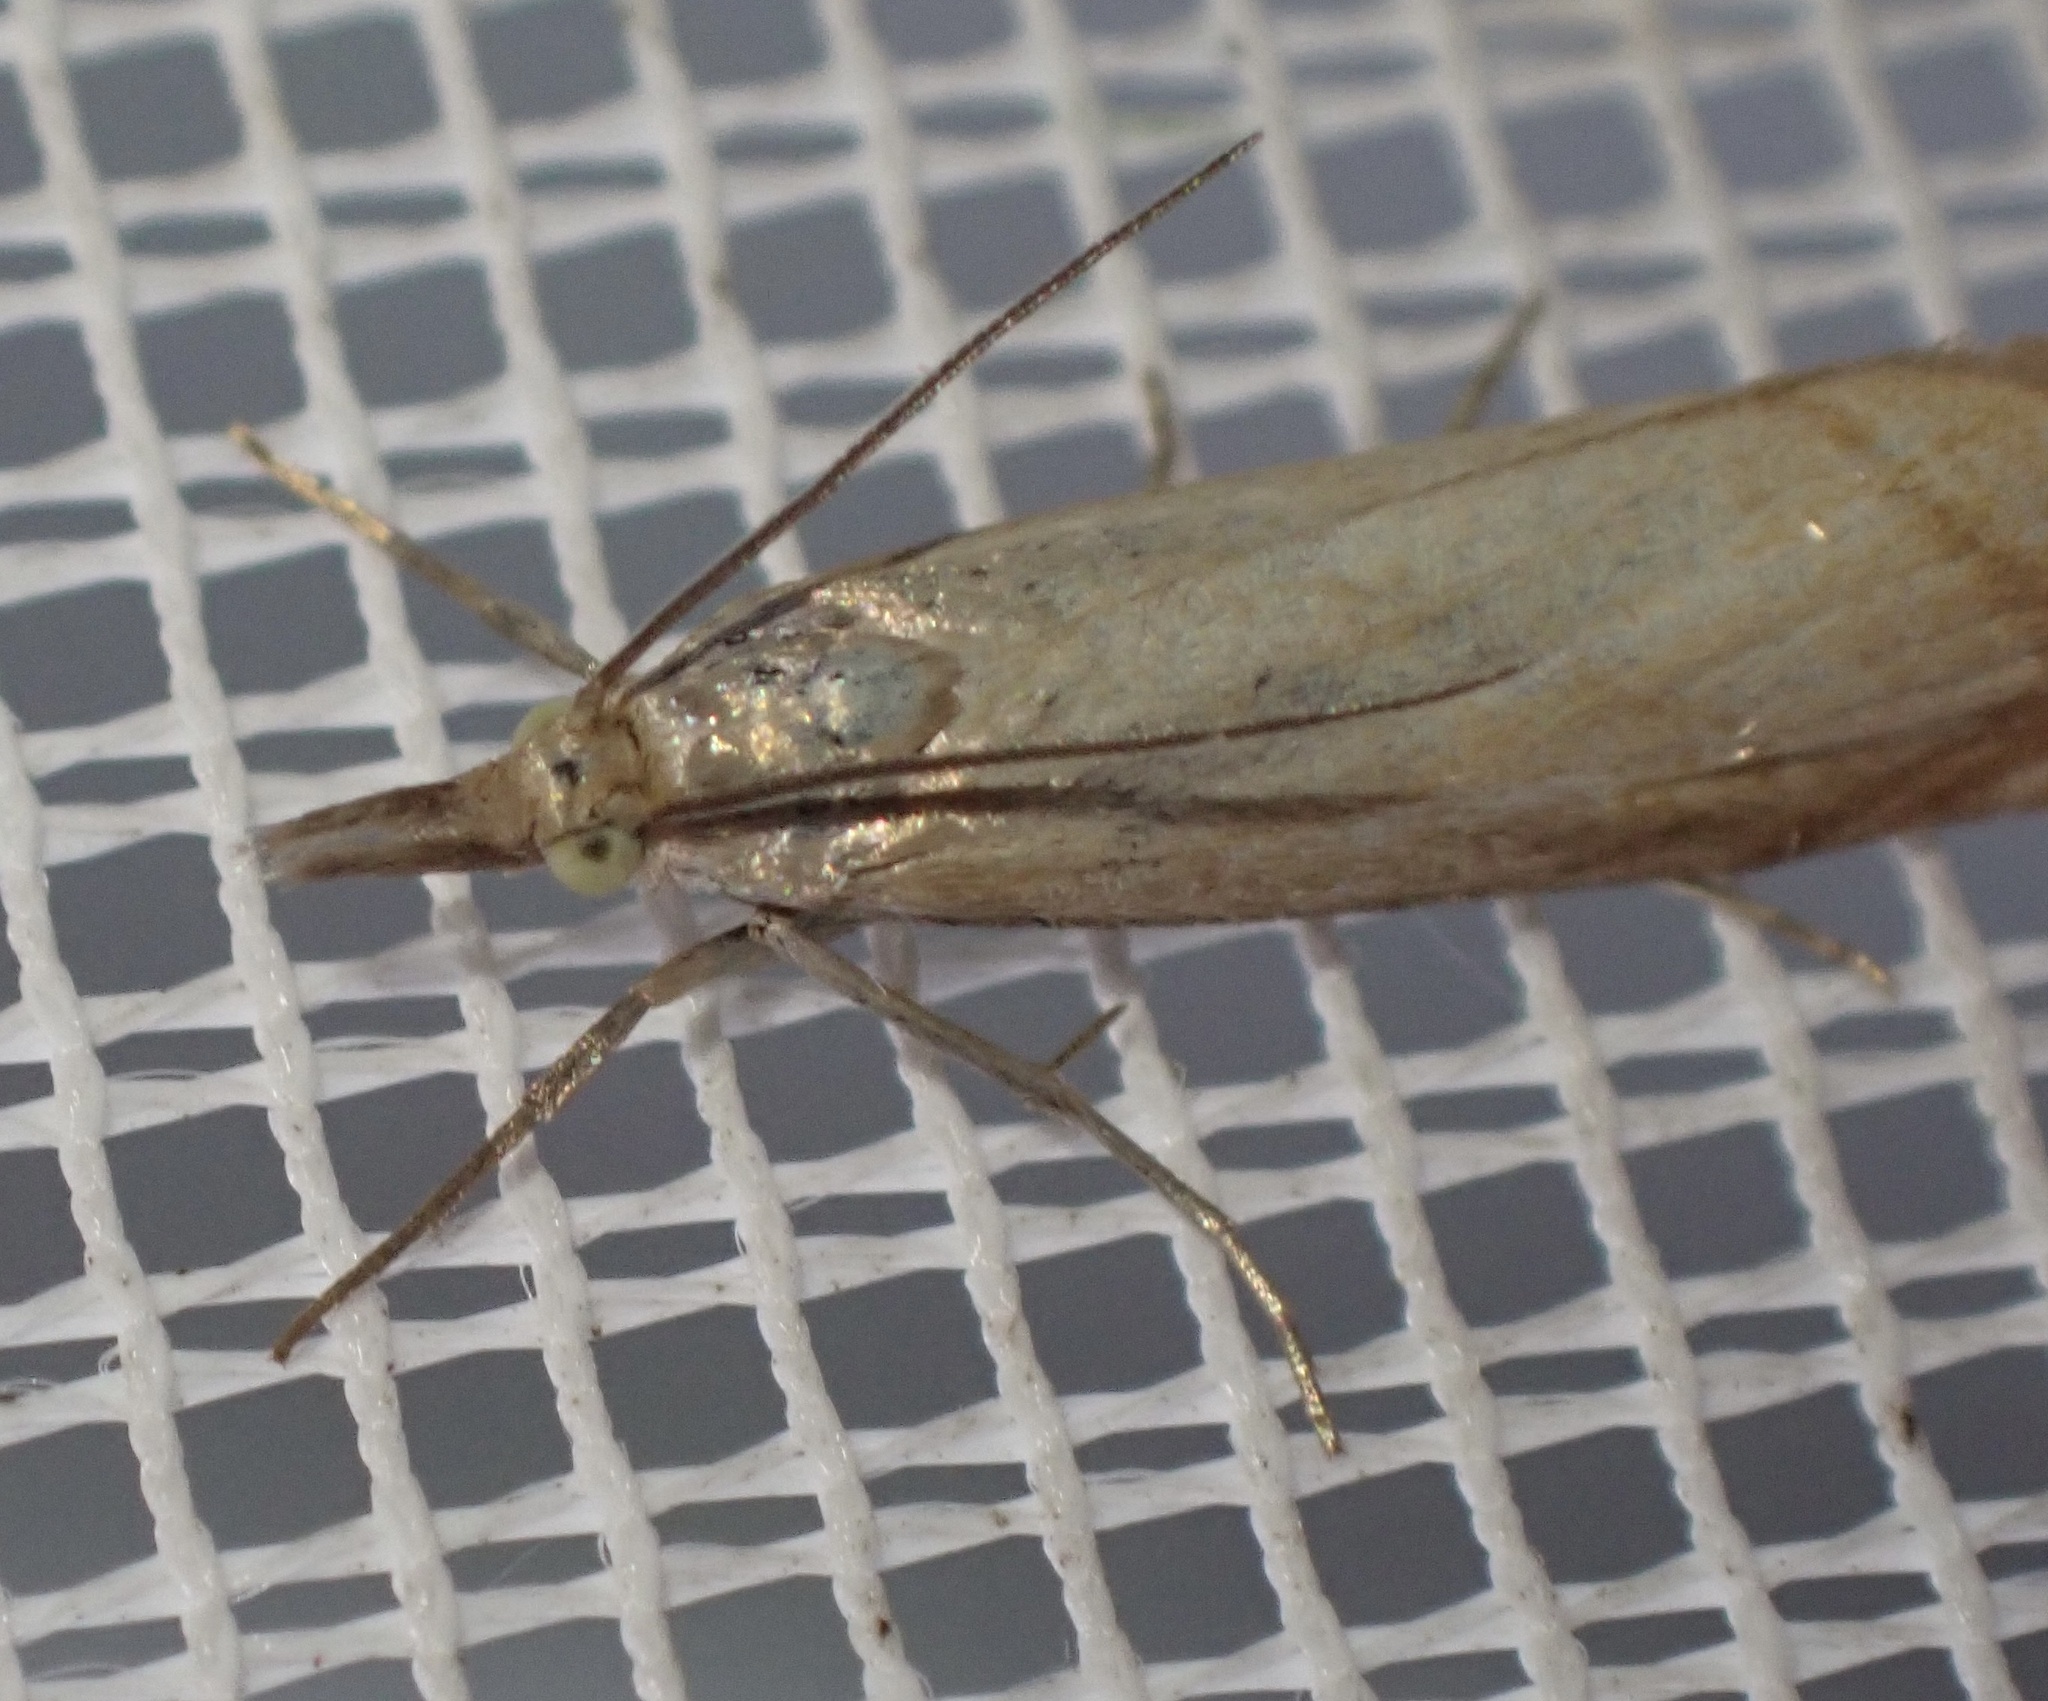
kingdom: Animalia
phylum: Arthropoda
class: Insecta
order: Lepidoptera
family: Crambidae
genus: Chrysoteuchia
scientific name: Chrysoteuchia culmella
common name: Garden grass-veneer
